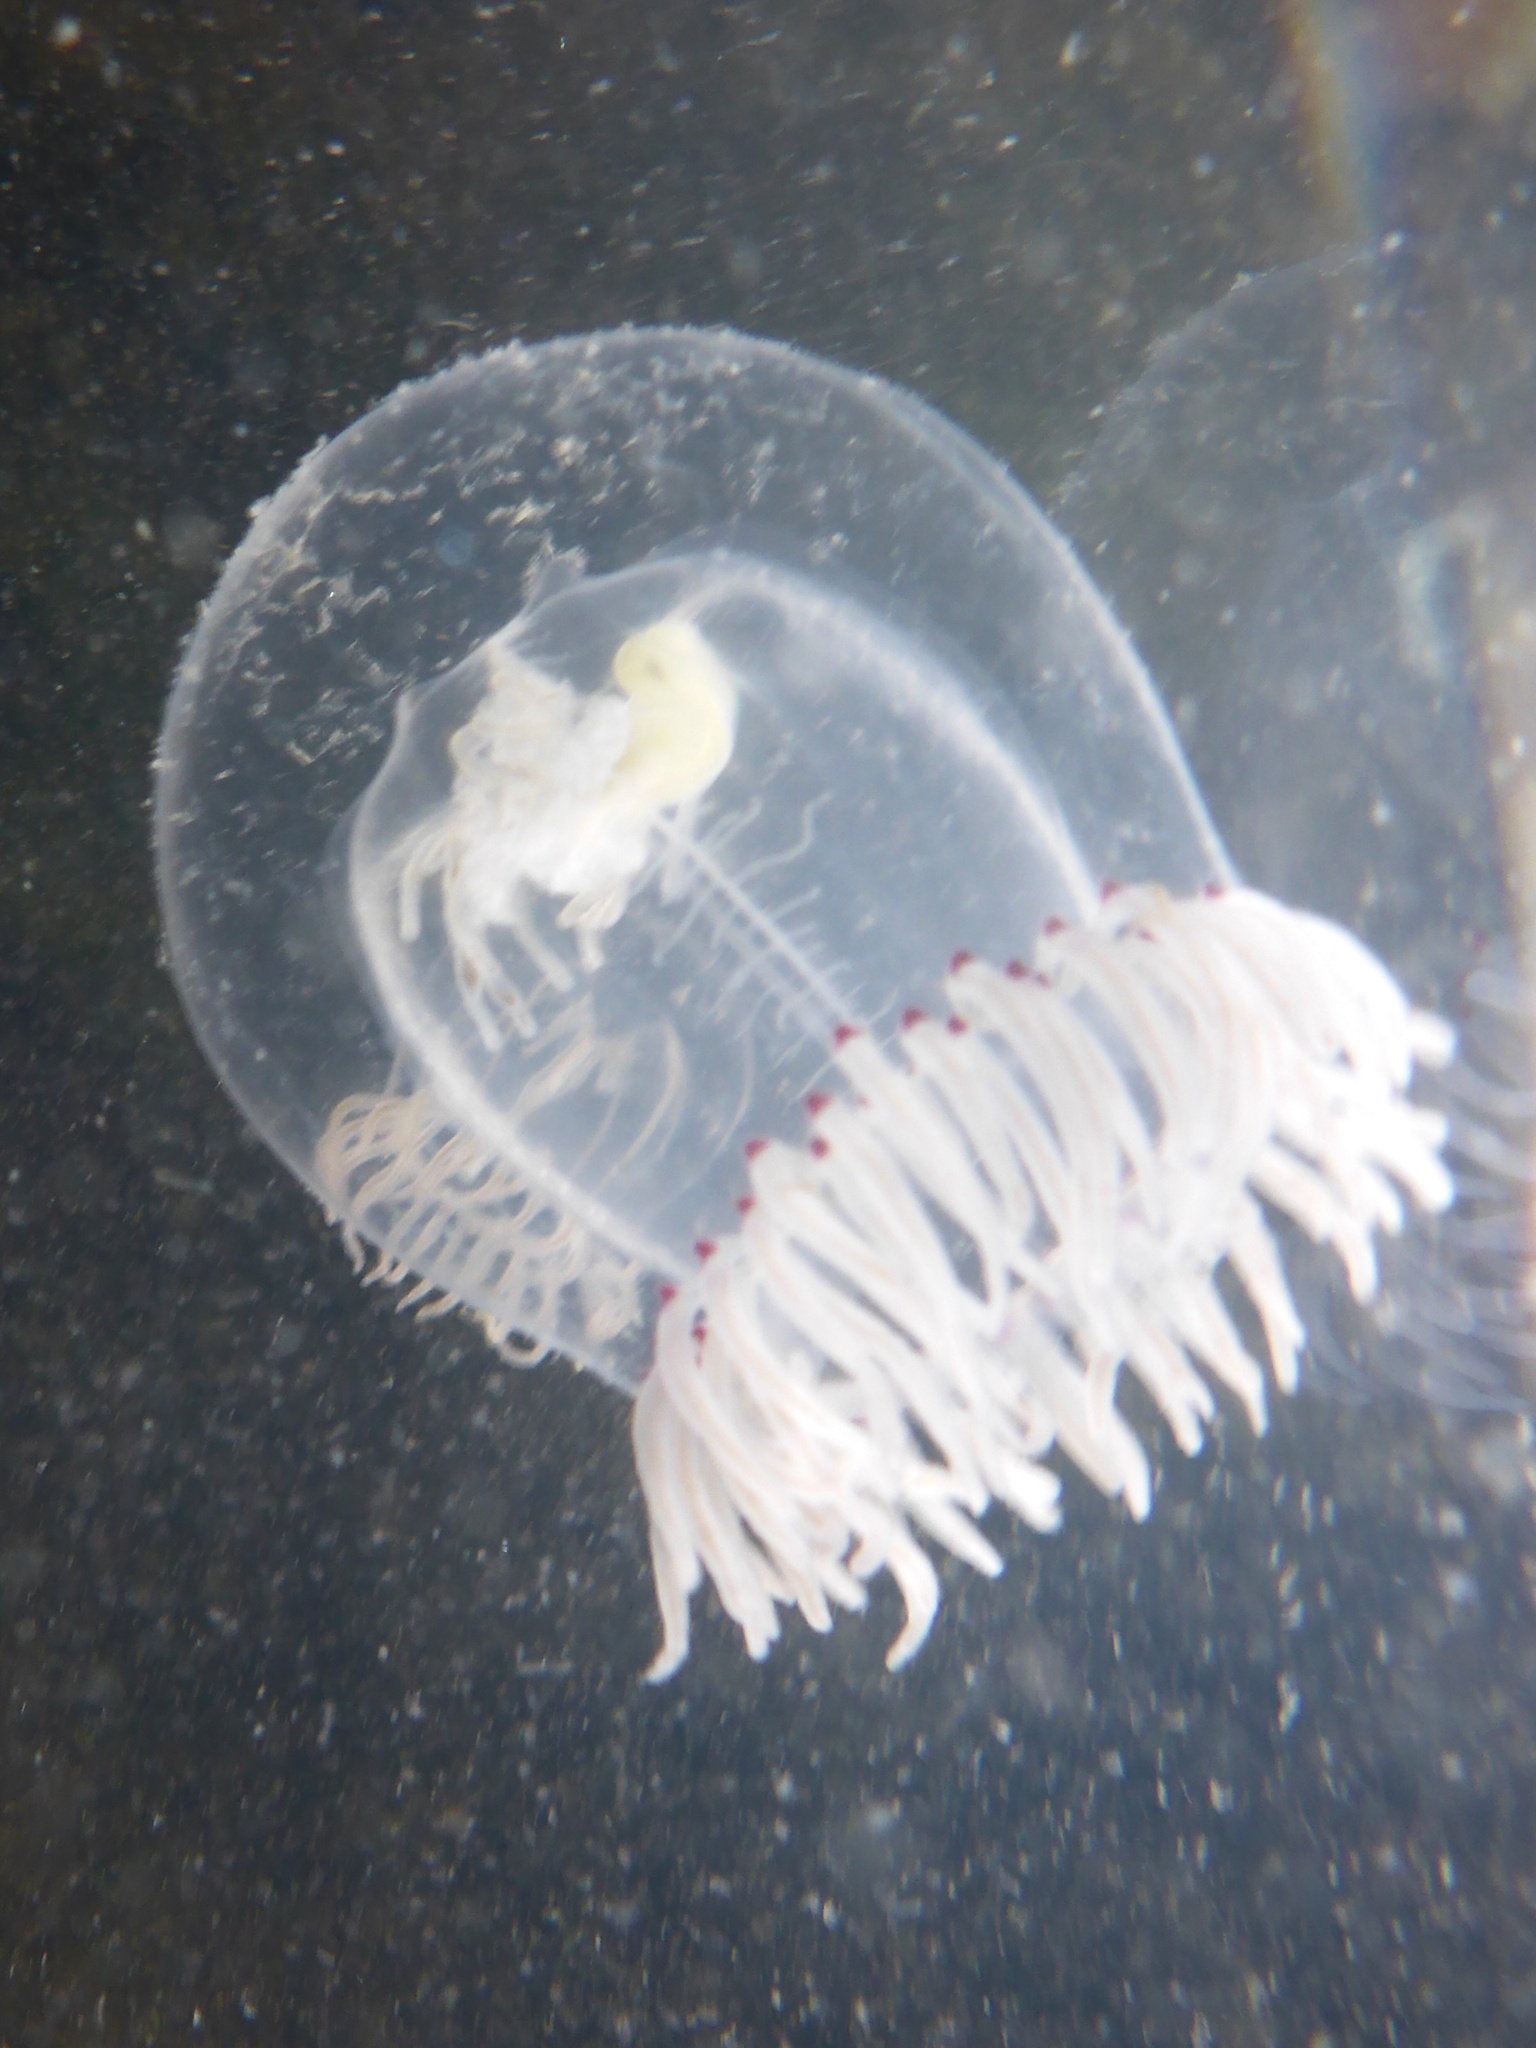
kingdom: Animalia
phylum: Cnidaria
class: Hydrozoa
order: Anthoathecata
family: Corynidae
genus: Polyorchis
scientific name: Polyorchis penicillatus
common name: Penicillate jellyfish
